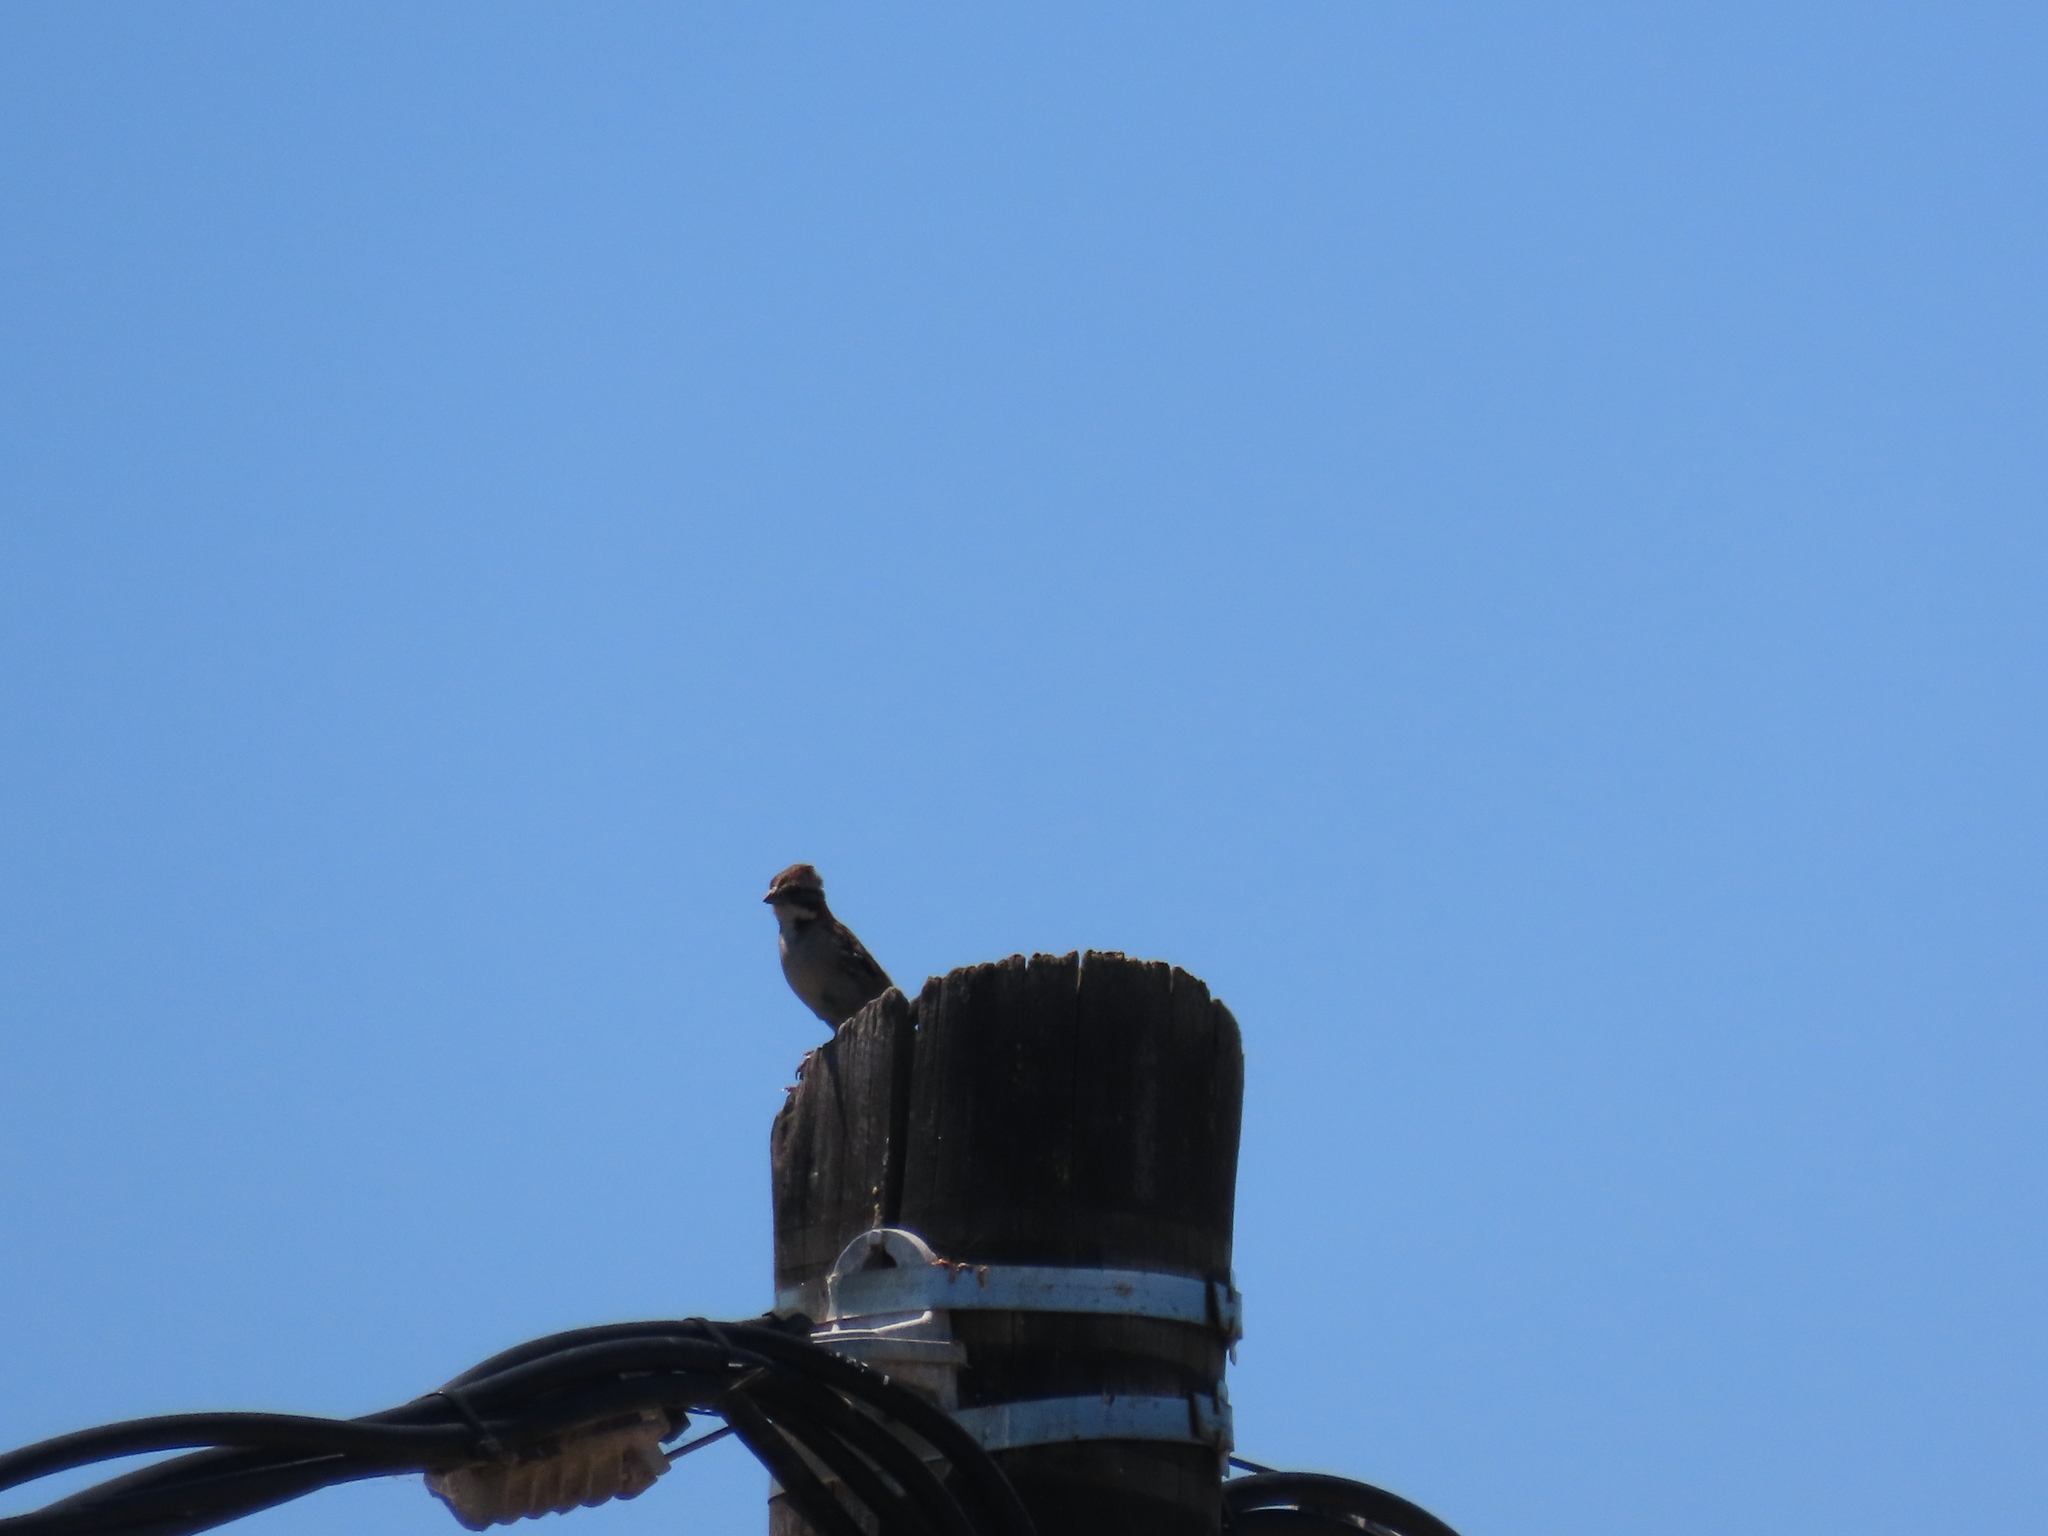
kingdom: Animalia
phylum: Chordata
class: Aves
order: Passeriformes
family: Passerellidae
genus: Zonotrichia
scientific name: Zonotrichia capensis
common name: Rufous-collared sparrow
